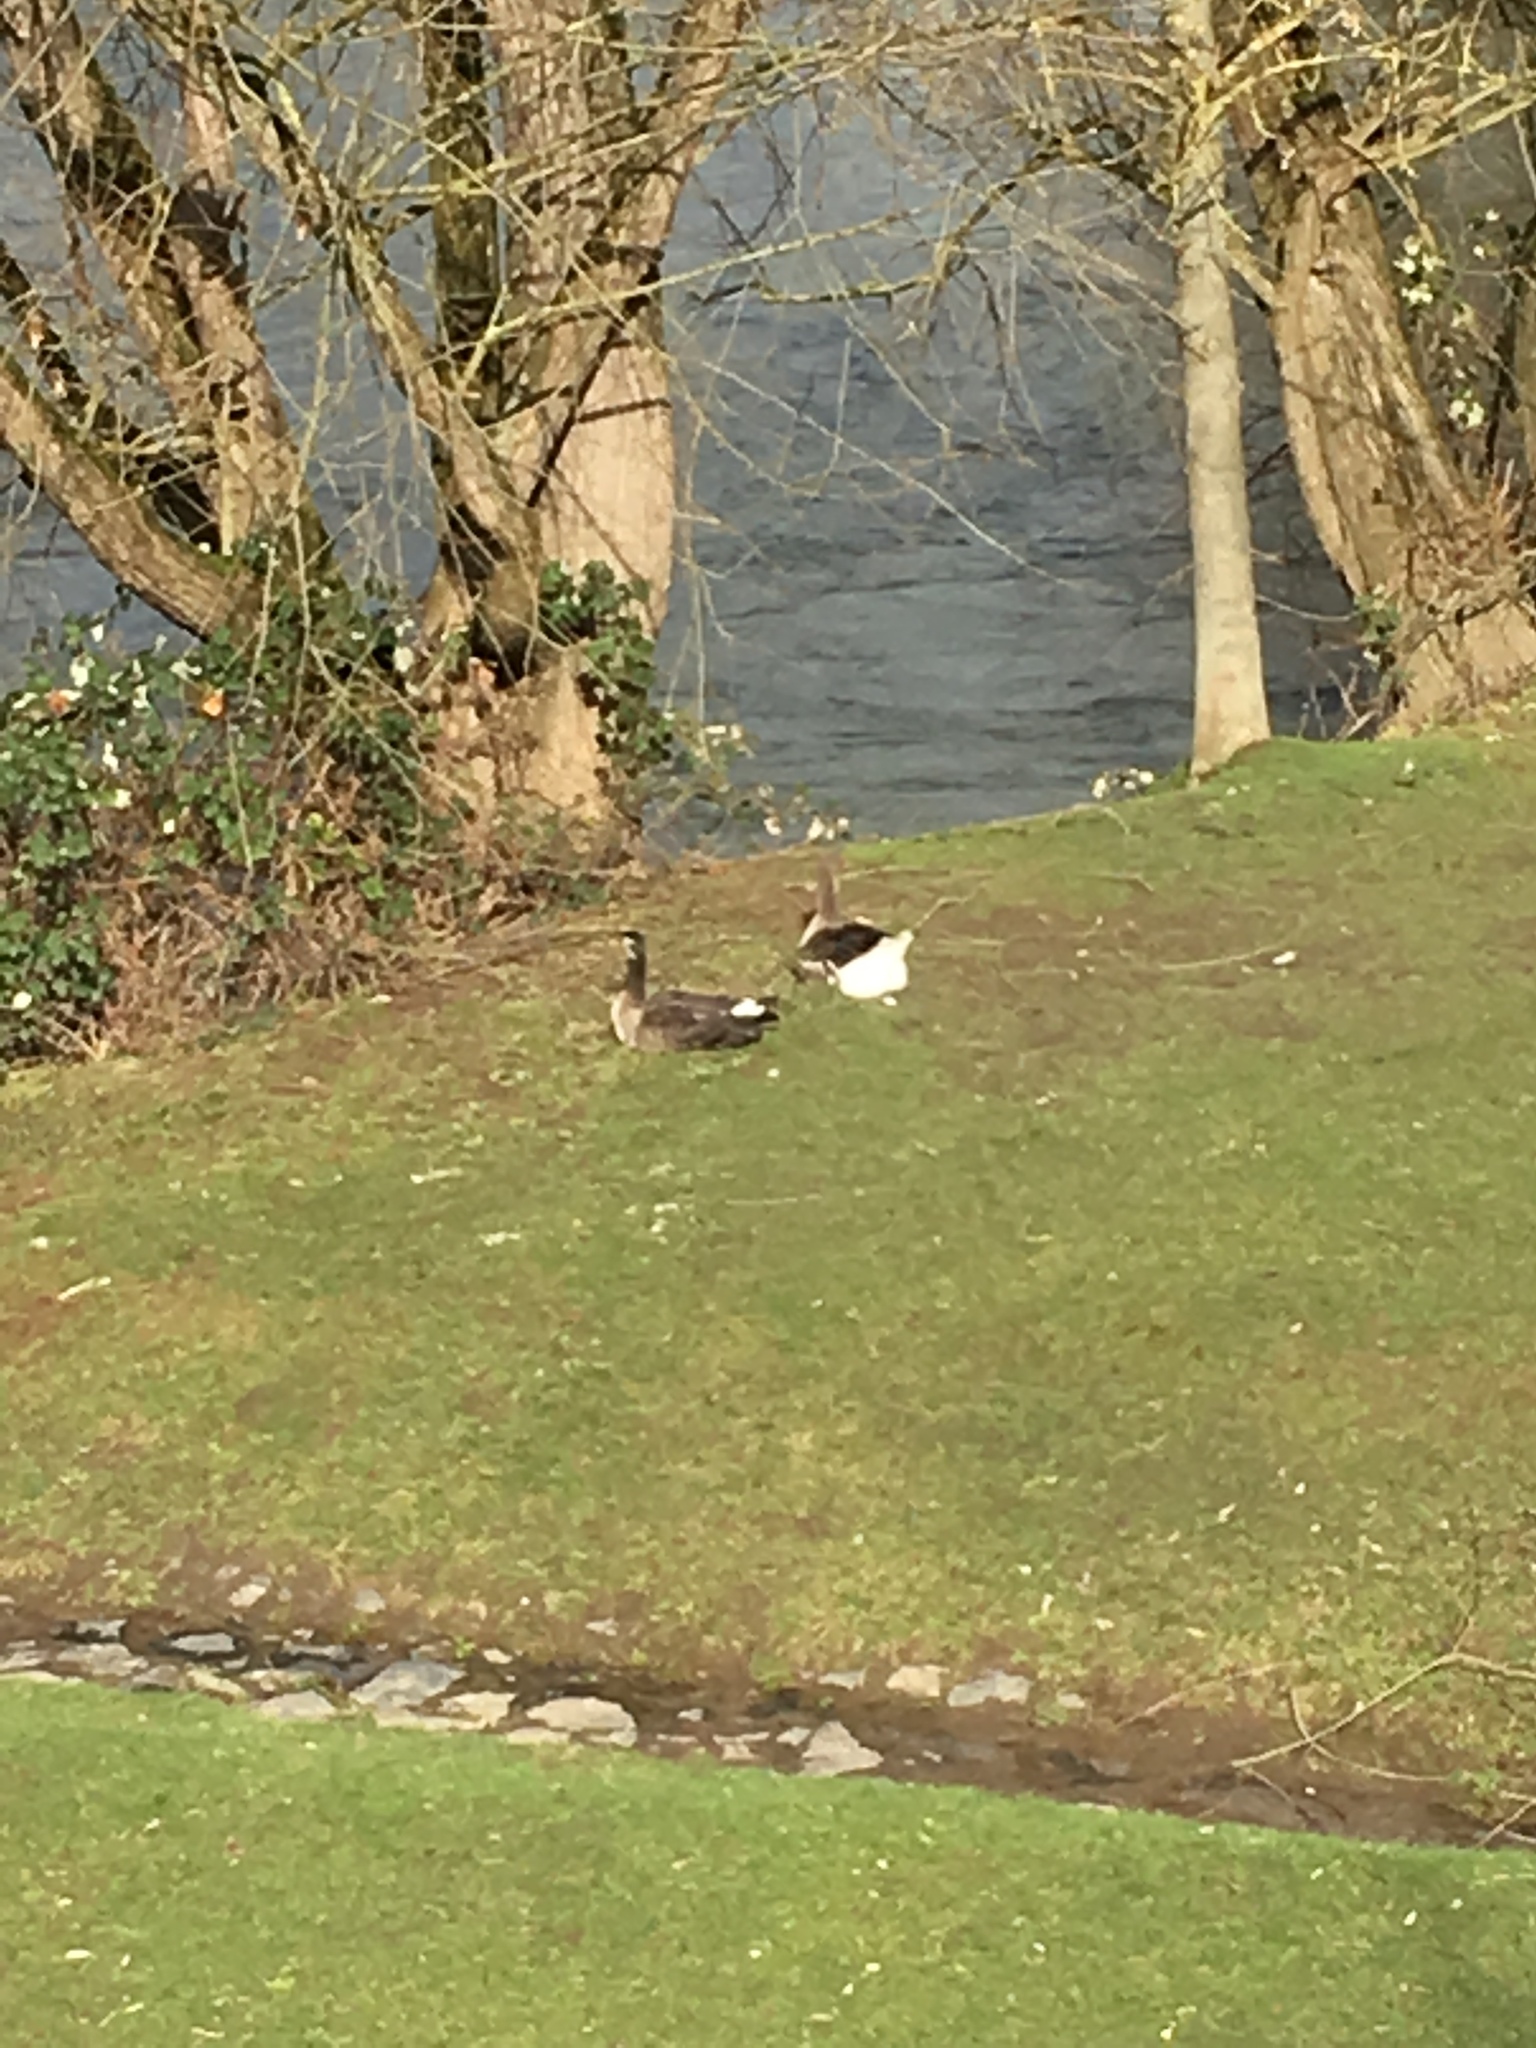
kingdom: Animalia
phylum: Chordata
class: Aves
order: Anseriformes
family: Anatidae
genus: Anser
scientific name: Anser anser
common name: Greylag goose
